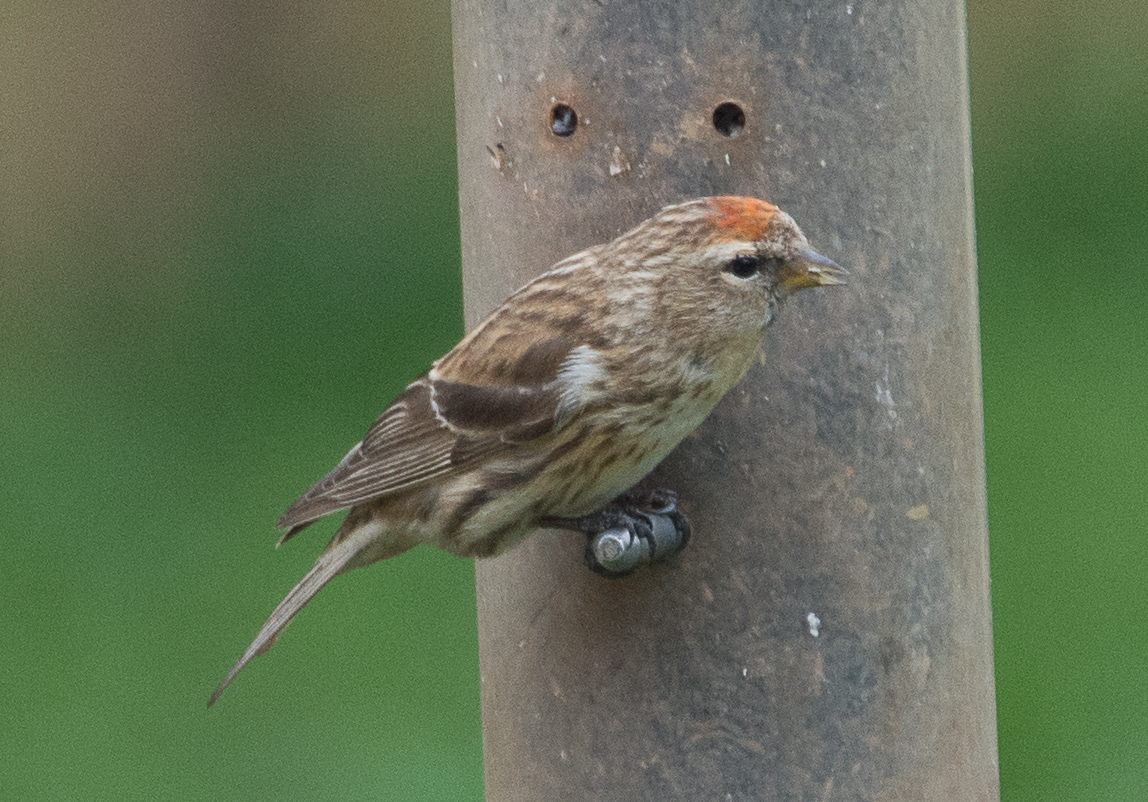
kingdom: Animalia
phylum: Chordata
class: Aves
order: Passeriformes
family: Fringillidae
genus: Acanthis
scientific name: Acanthis flammea
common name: Common redpoll
